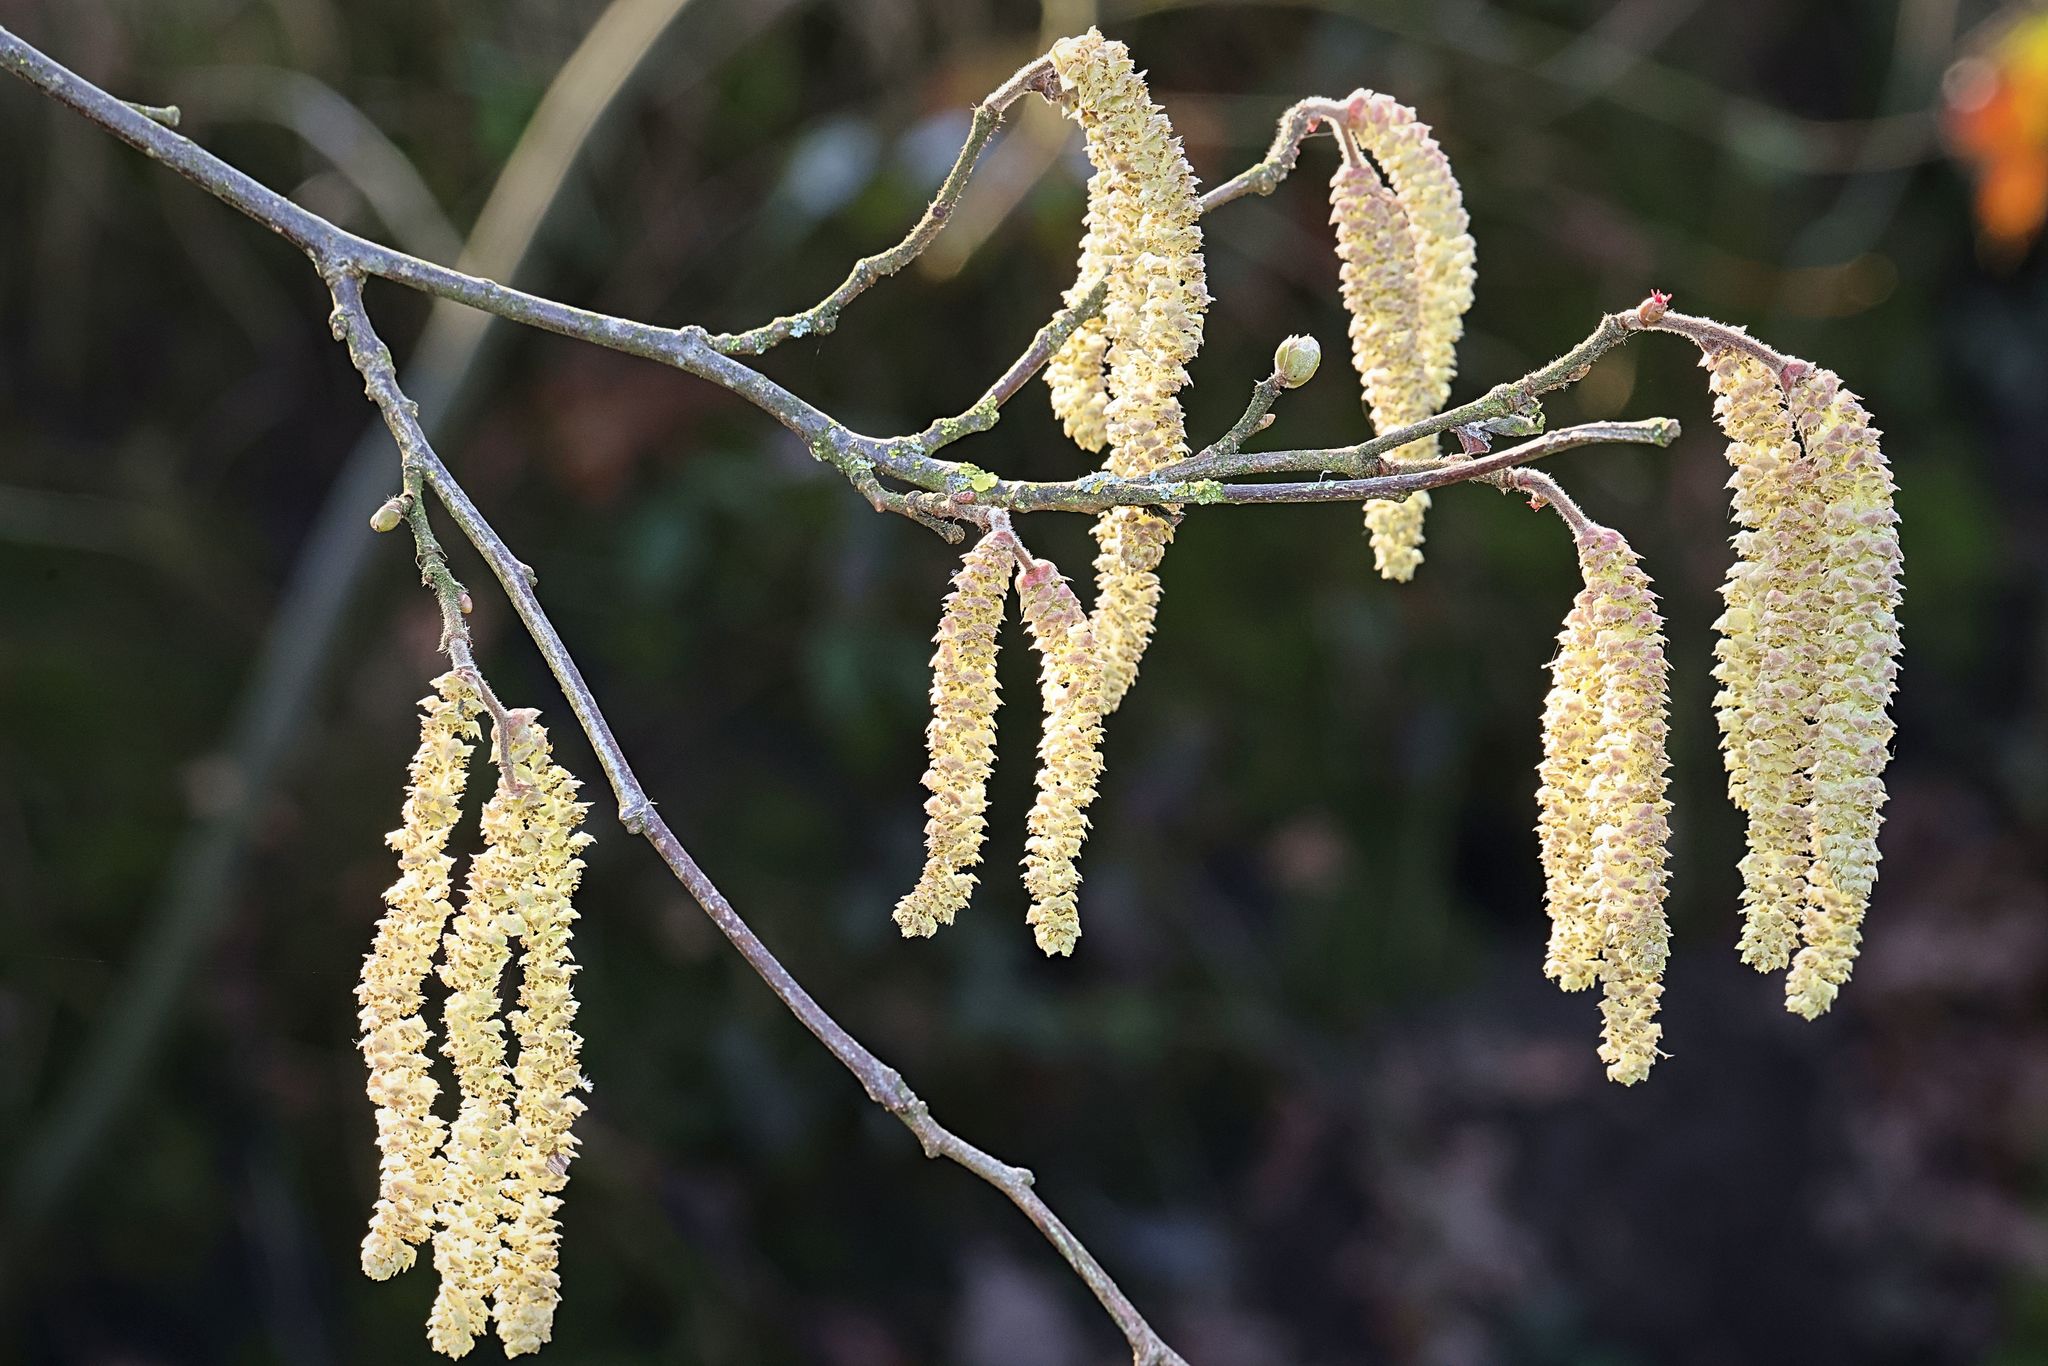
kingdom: Plantae
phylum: Tracheophyta
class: Magnoliopsida
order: Fagales
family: Betulaceae
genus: Corylus
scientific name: Corylus avellana
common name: European hazel
